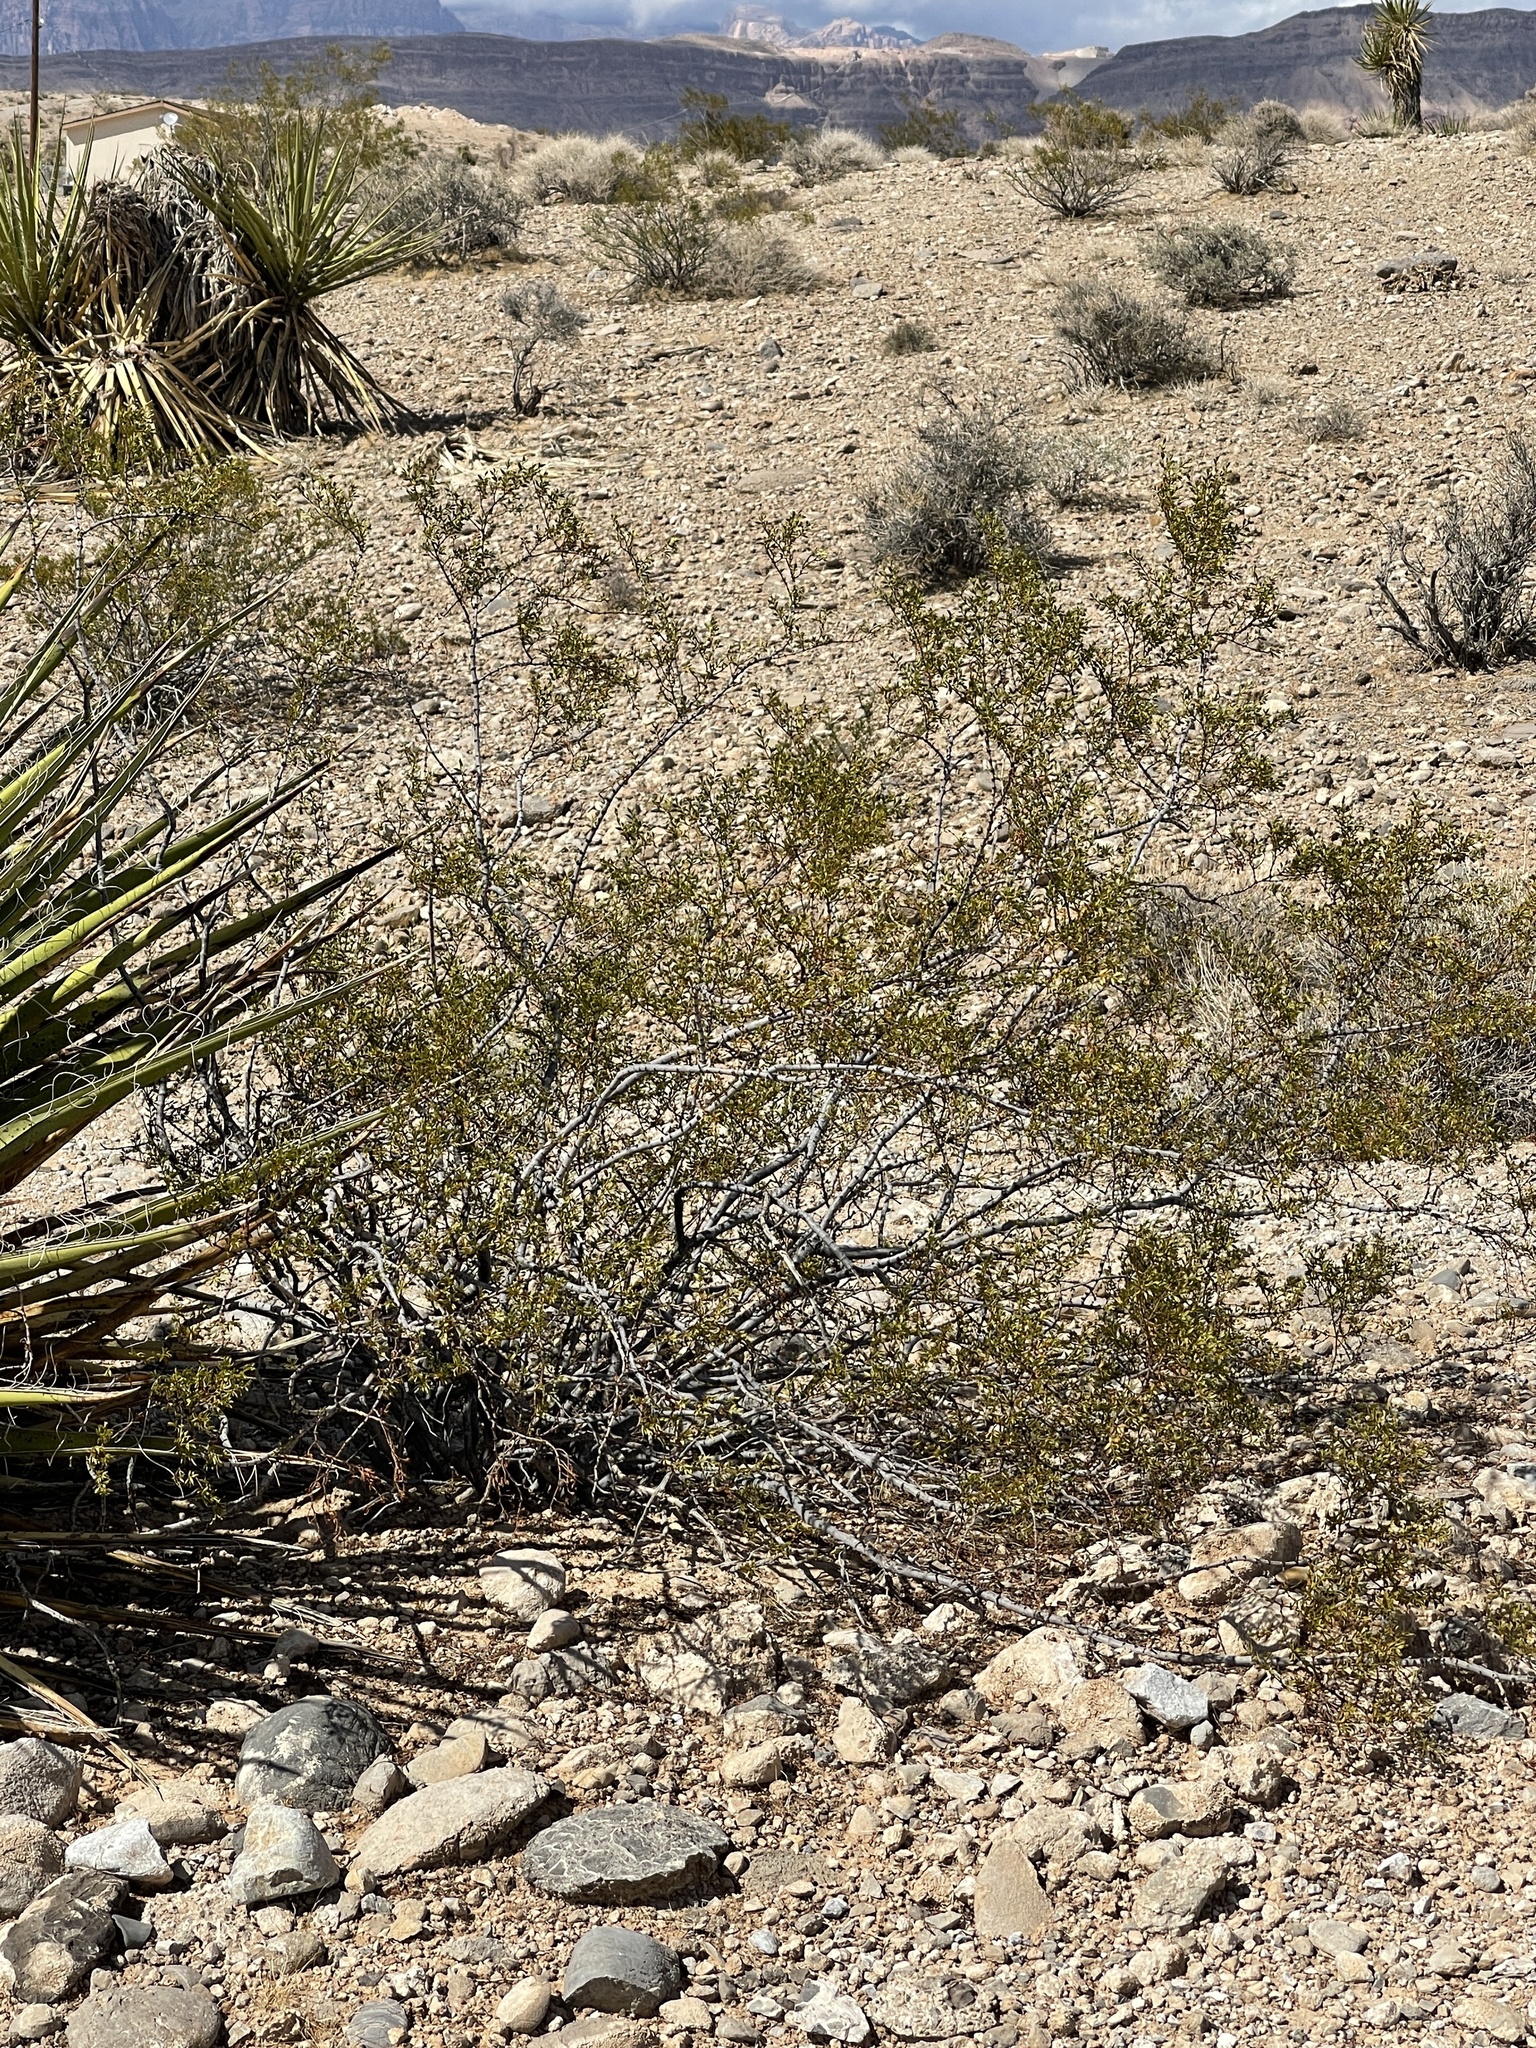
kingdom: Plantae
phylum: Tracheophyta
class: Magnoliopsida
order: Zygophyllales
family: Zygophyllaceae
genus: Larrea
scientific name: Larrea tridentata
